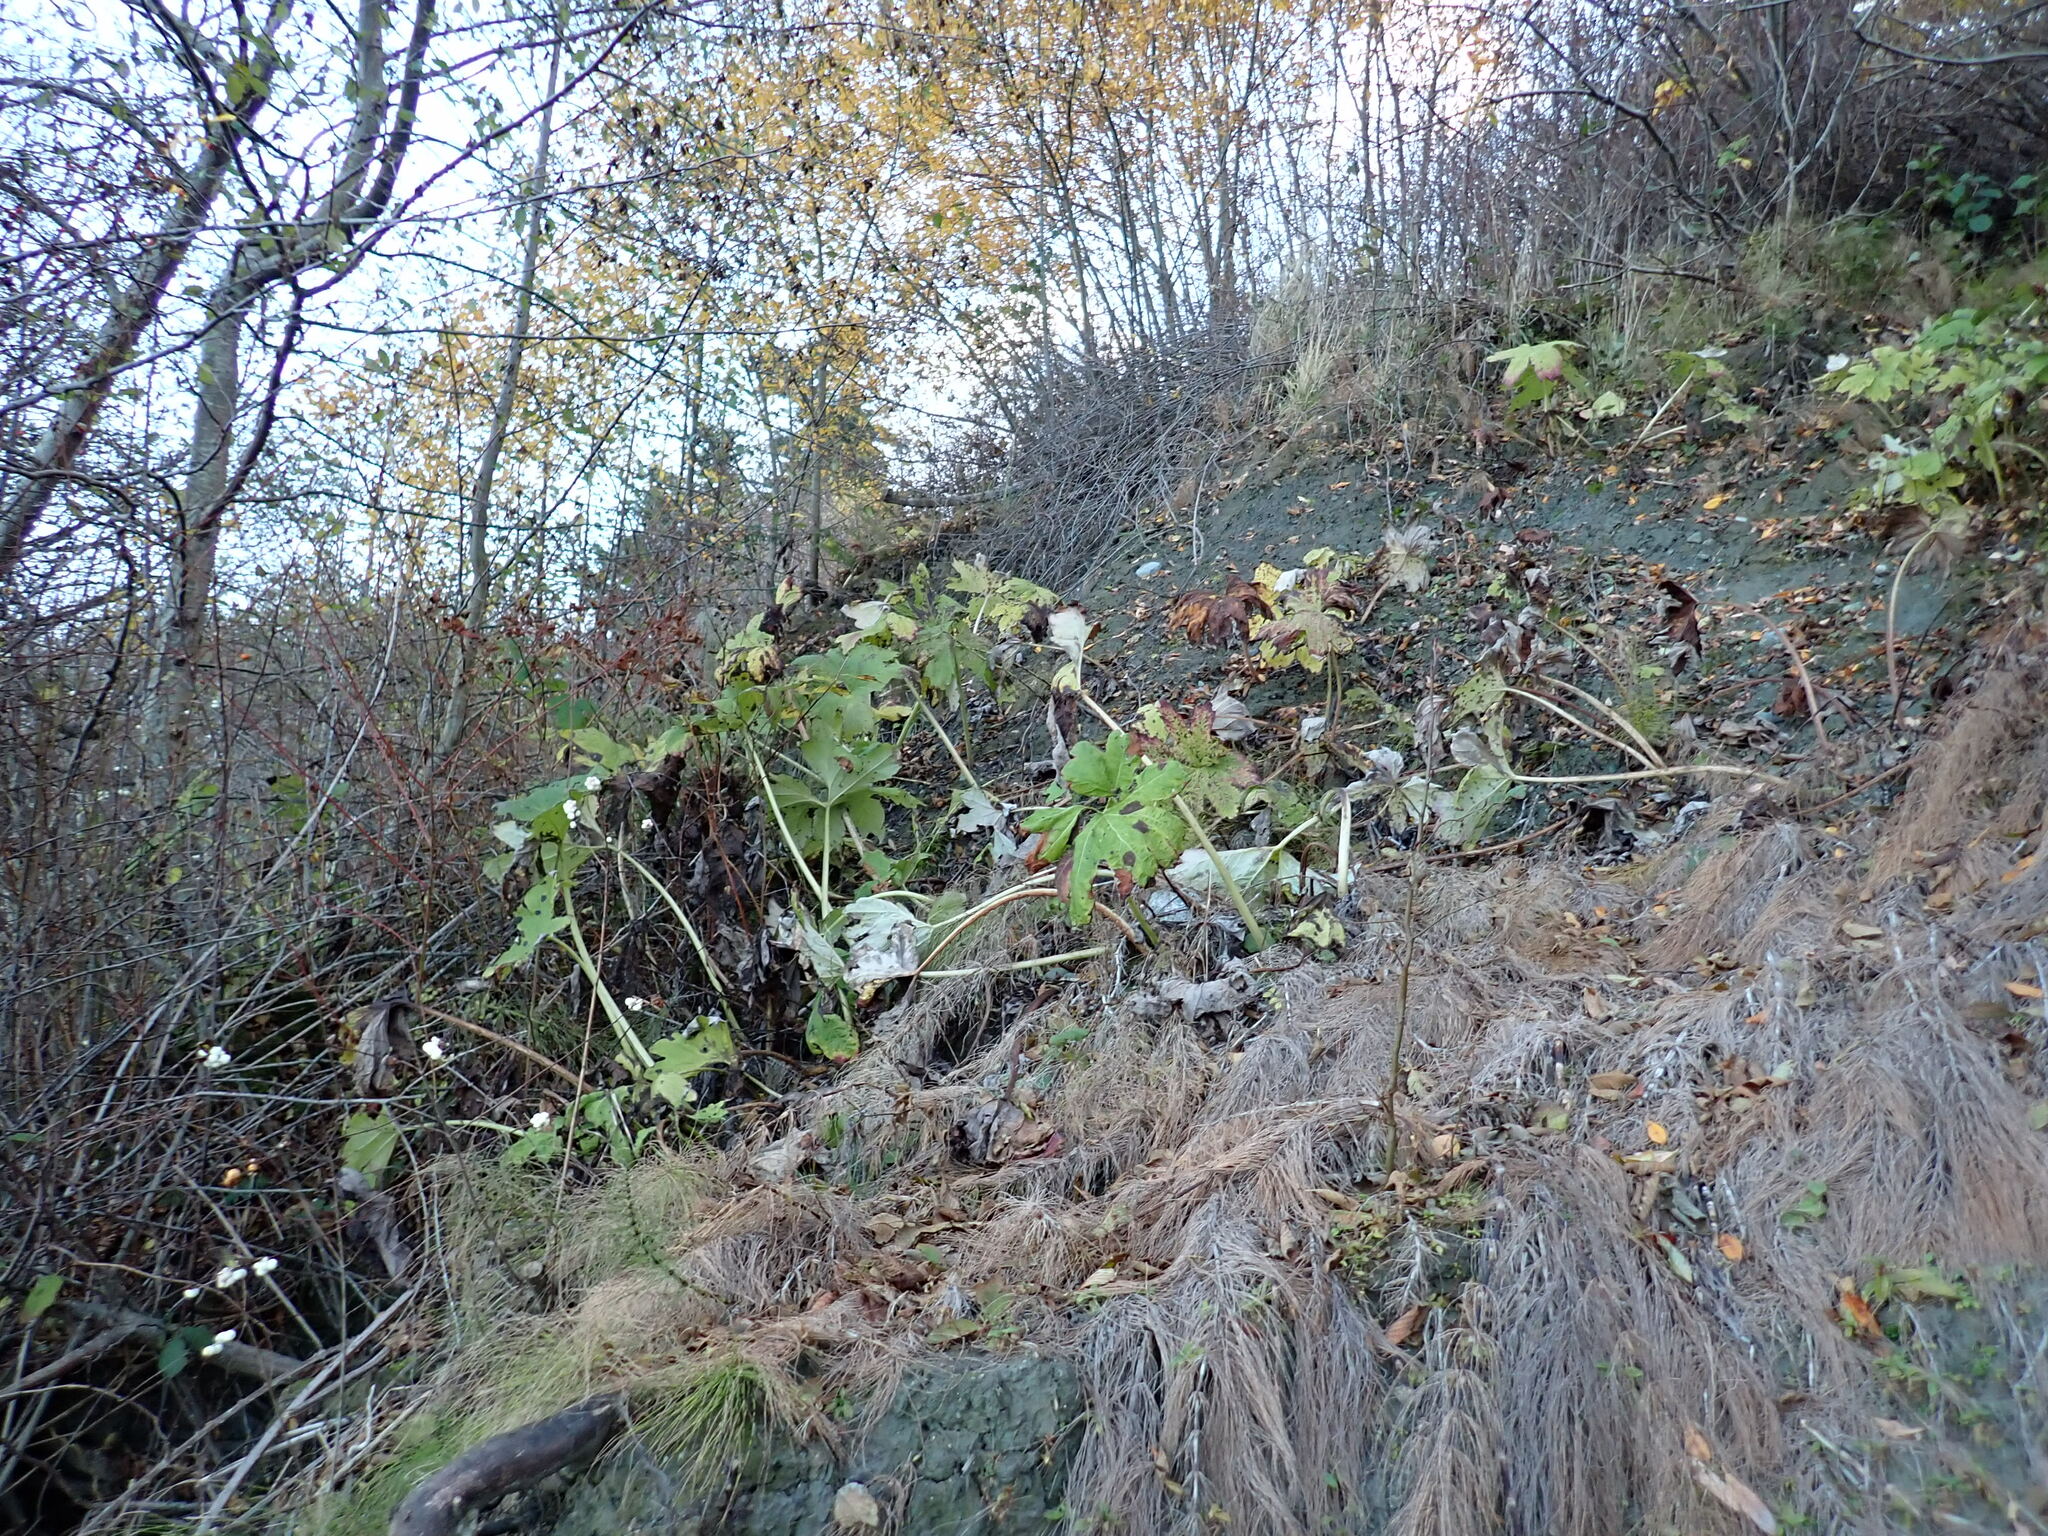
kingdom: Plantae
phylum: Tracheophyta
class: Magnoliopsida
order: Asterales
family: Asteraceae
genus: Petasites
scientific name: Petasites frigidus
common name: Arctic butterbur
